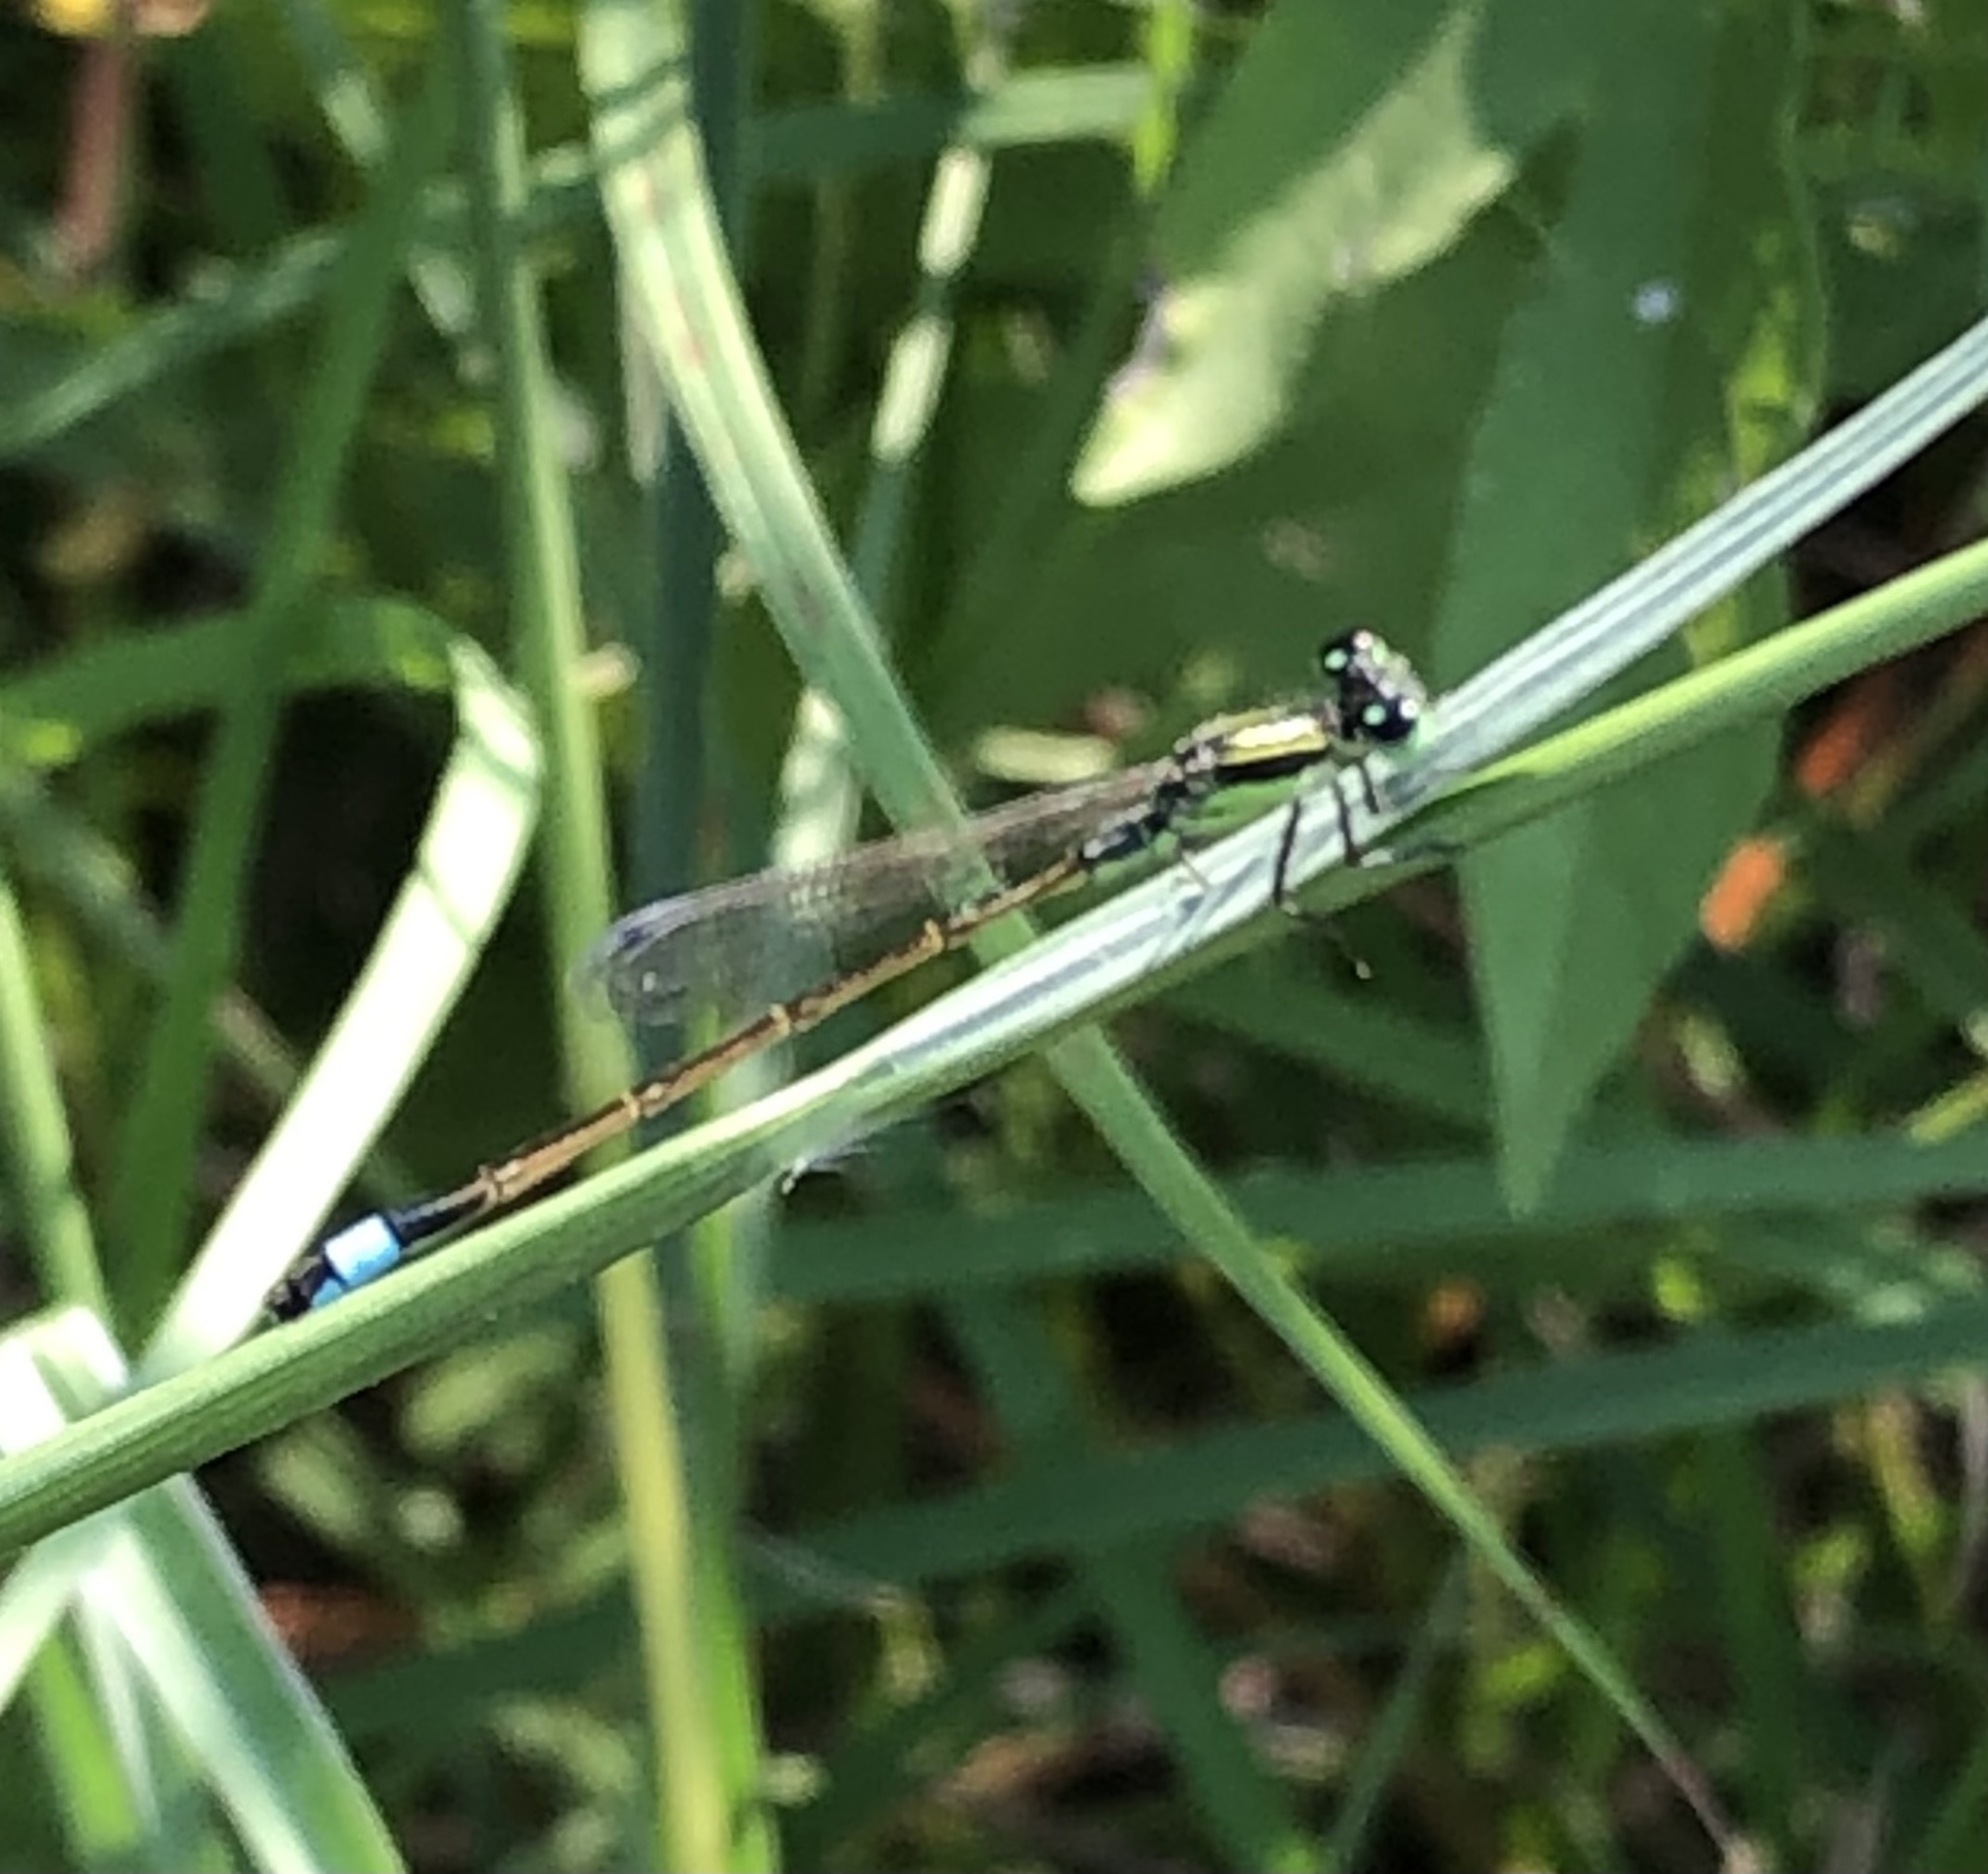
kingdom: Animalia
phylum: Arthropoda
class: Insecta
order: Odonata
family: Coenagrionidae
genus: Ischnura
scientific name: Ischnura ramburii
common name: Rambur's forktail
